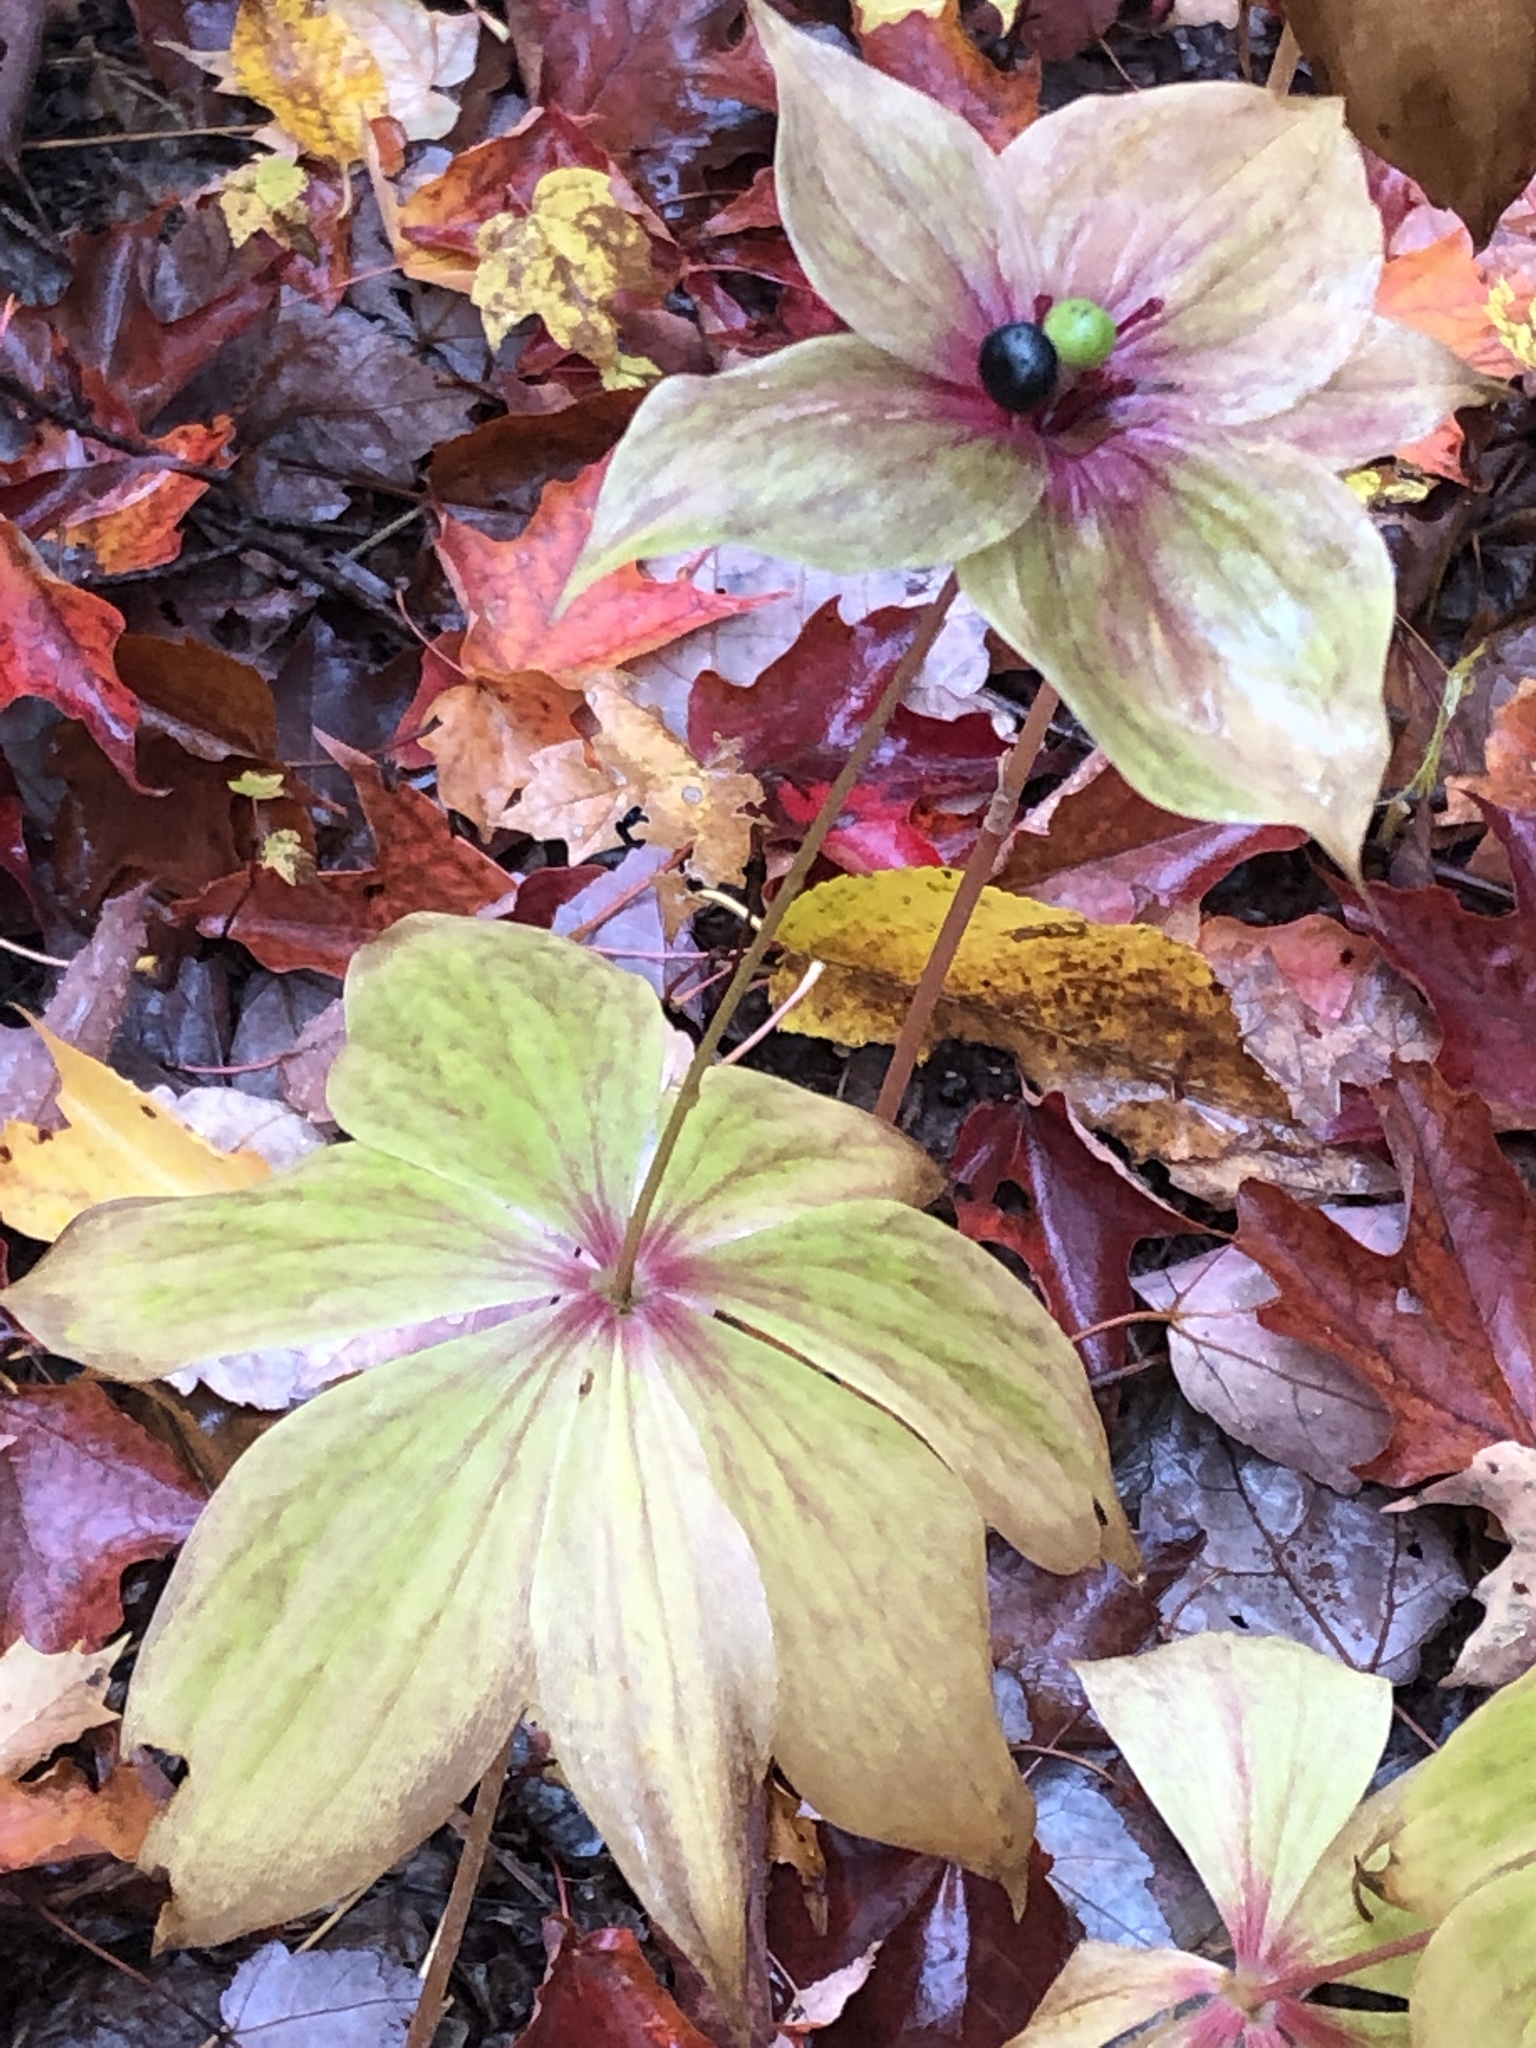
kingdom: Plantae
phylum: Tracheophyta
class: Liliopsida
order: Liliales
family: Liliaceae
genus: Medeola
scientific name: Medeola virginiana
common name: Indian cucumber-root
